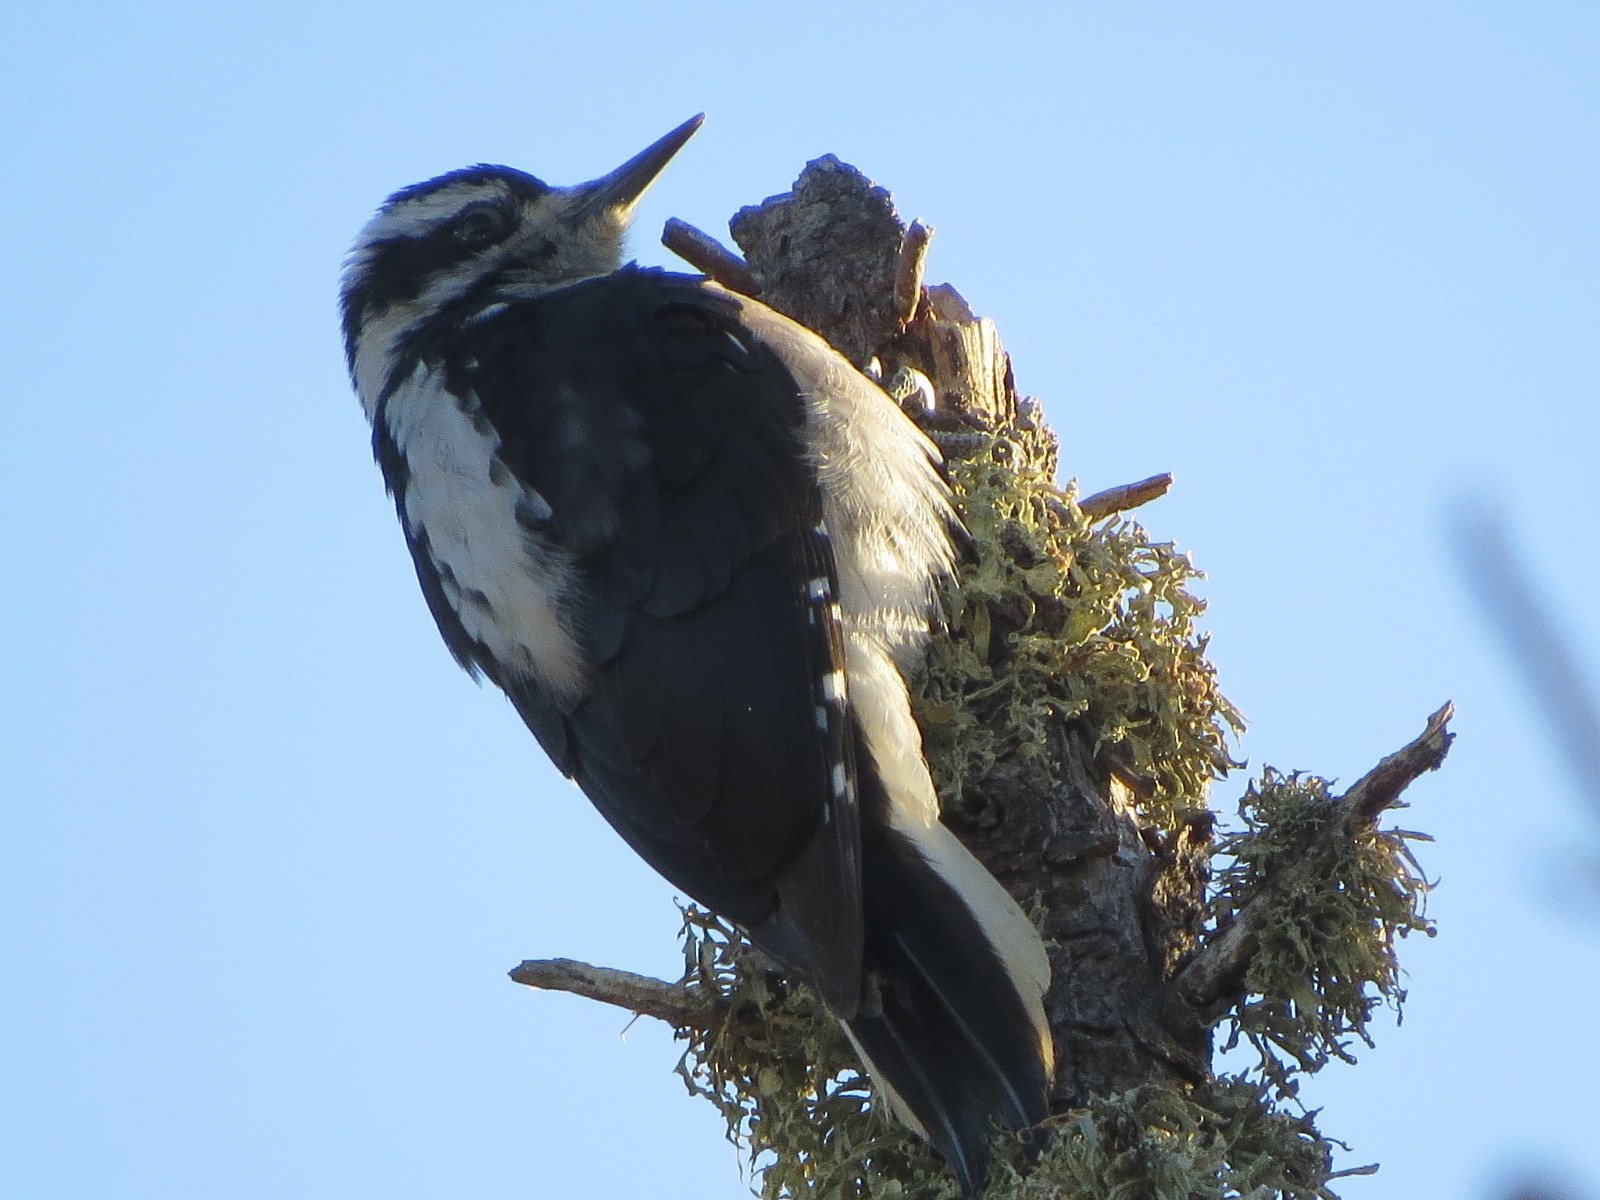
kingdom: Animalia
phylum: Chordata
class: Aves
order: Piciformes
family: Picidae
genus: Leuconotopicus
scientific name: Leuconotopicus villosus
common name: Hairy woodpecker
